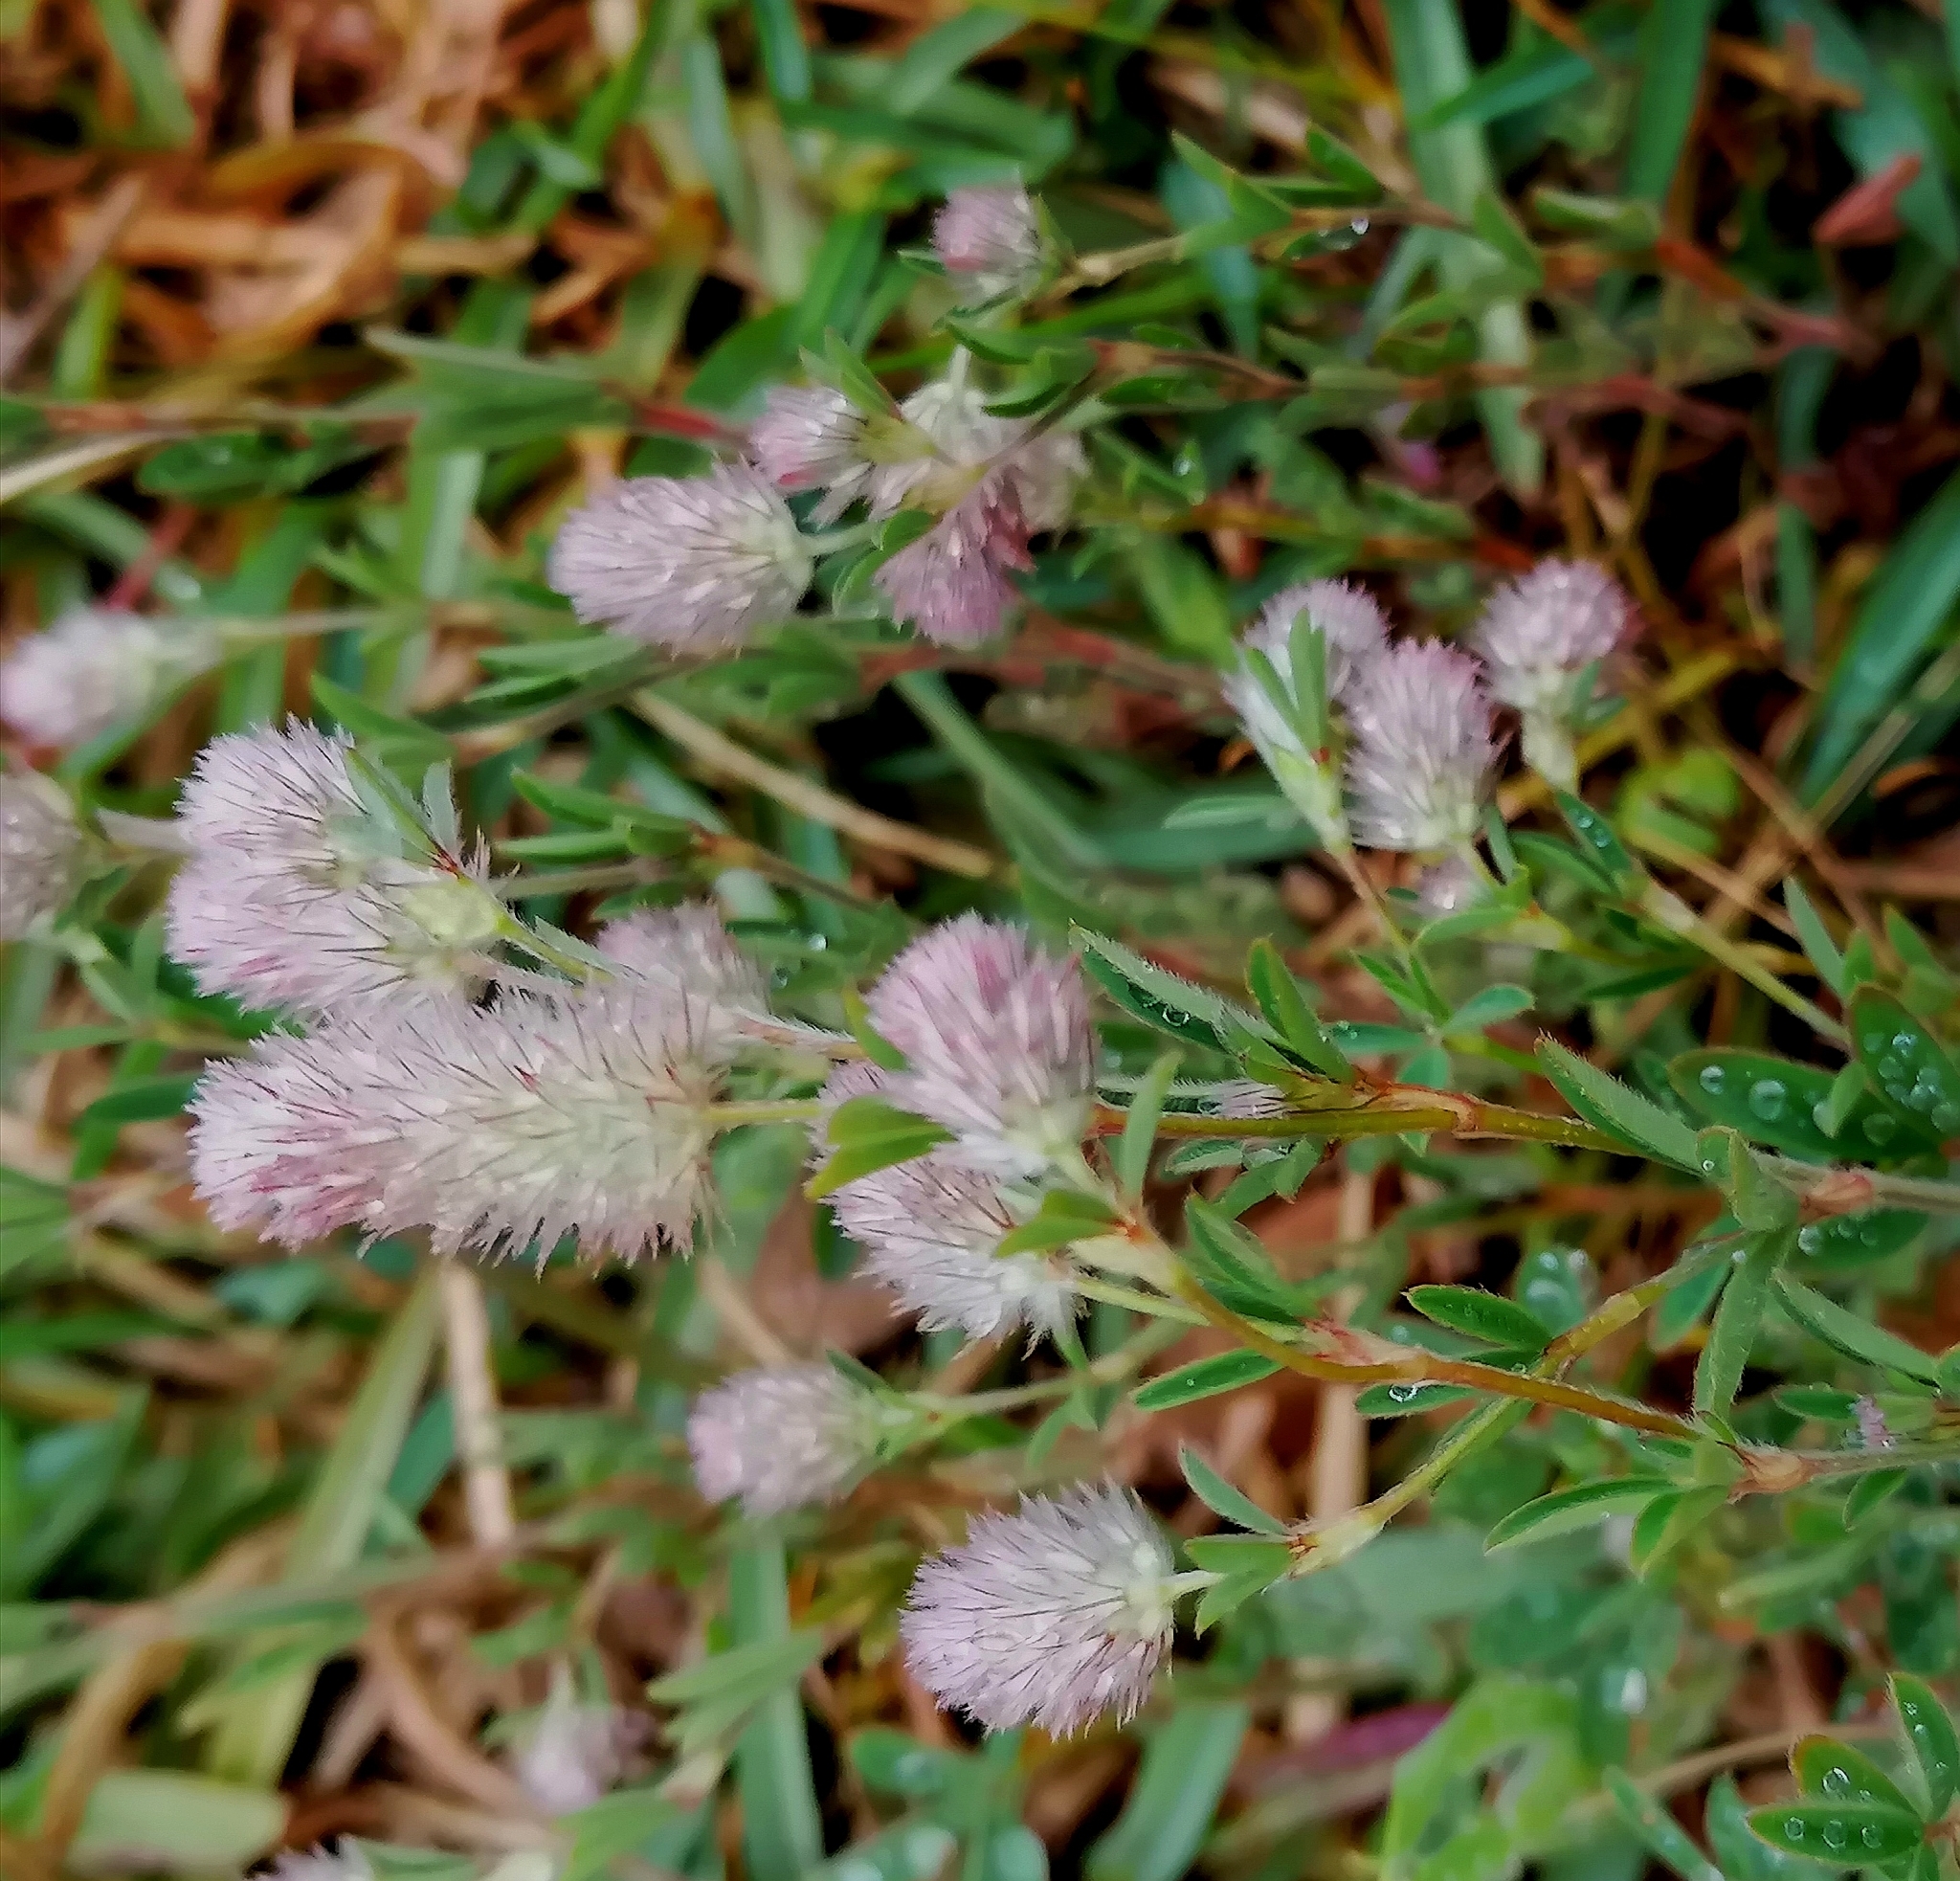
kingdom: Plantae
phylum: Tracheophyta
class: Magnoliopsida
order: Fabales
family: Fabaceae
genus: Trifolium
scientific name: Trifolium arvense
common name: Hare's-foot clover
